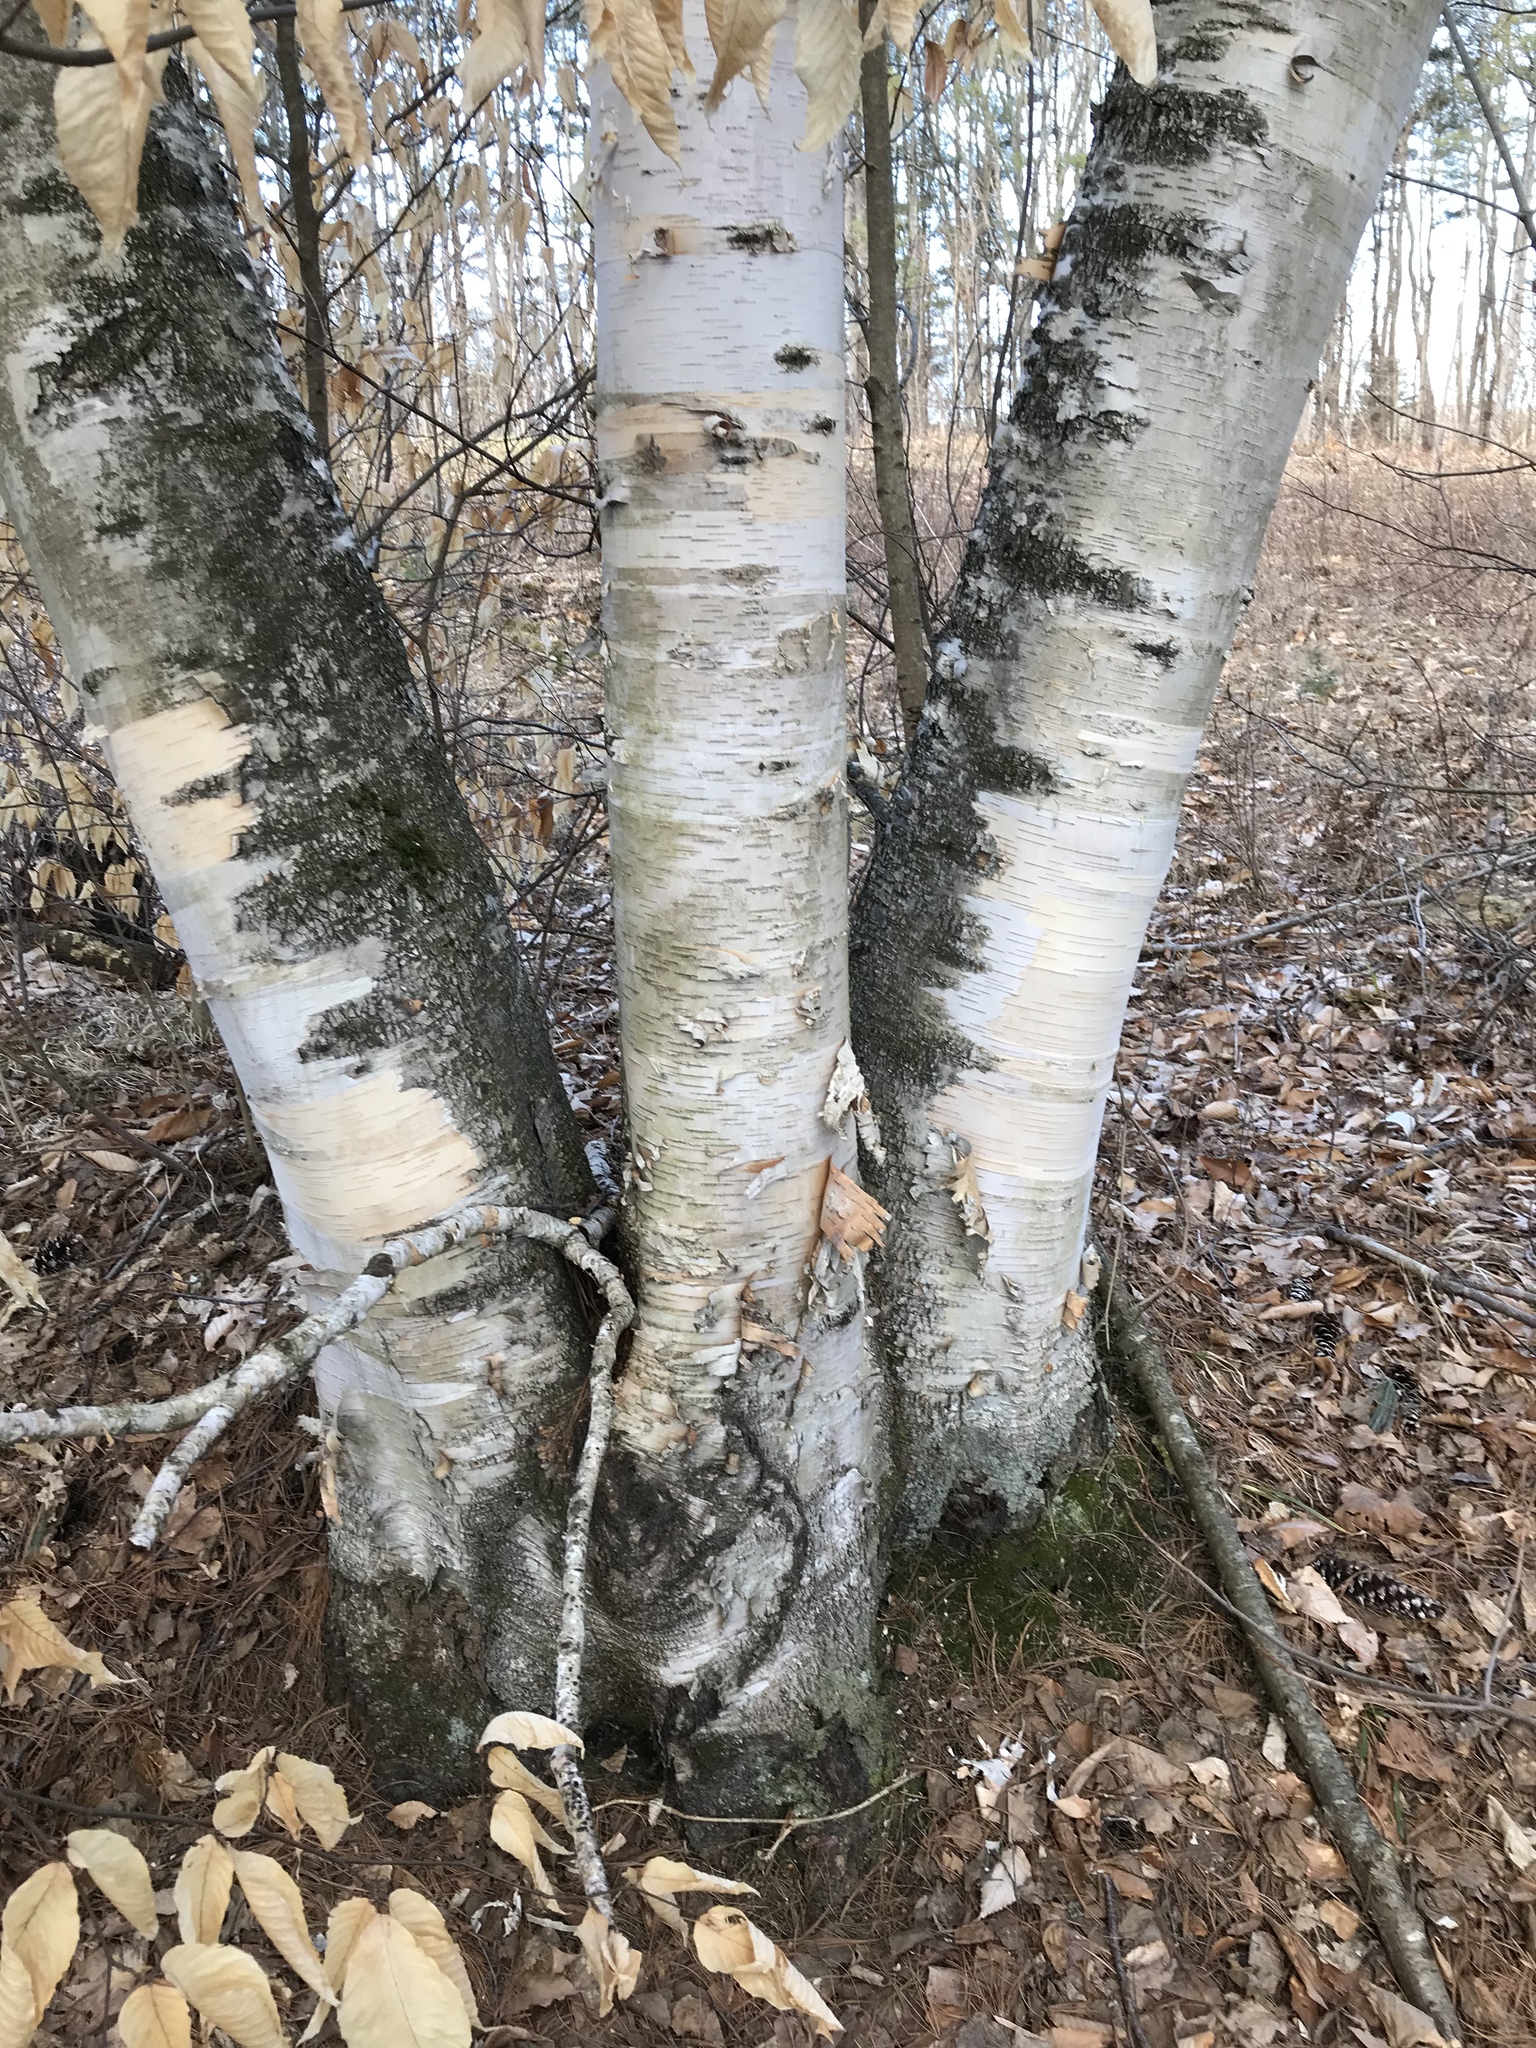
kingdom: Plantae
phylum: Tracheophyta
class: Magnoliopsida
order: Fagales
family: Betulaceae
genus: Betula
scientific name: Betula papyrifera
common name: Paper birch
